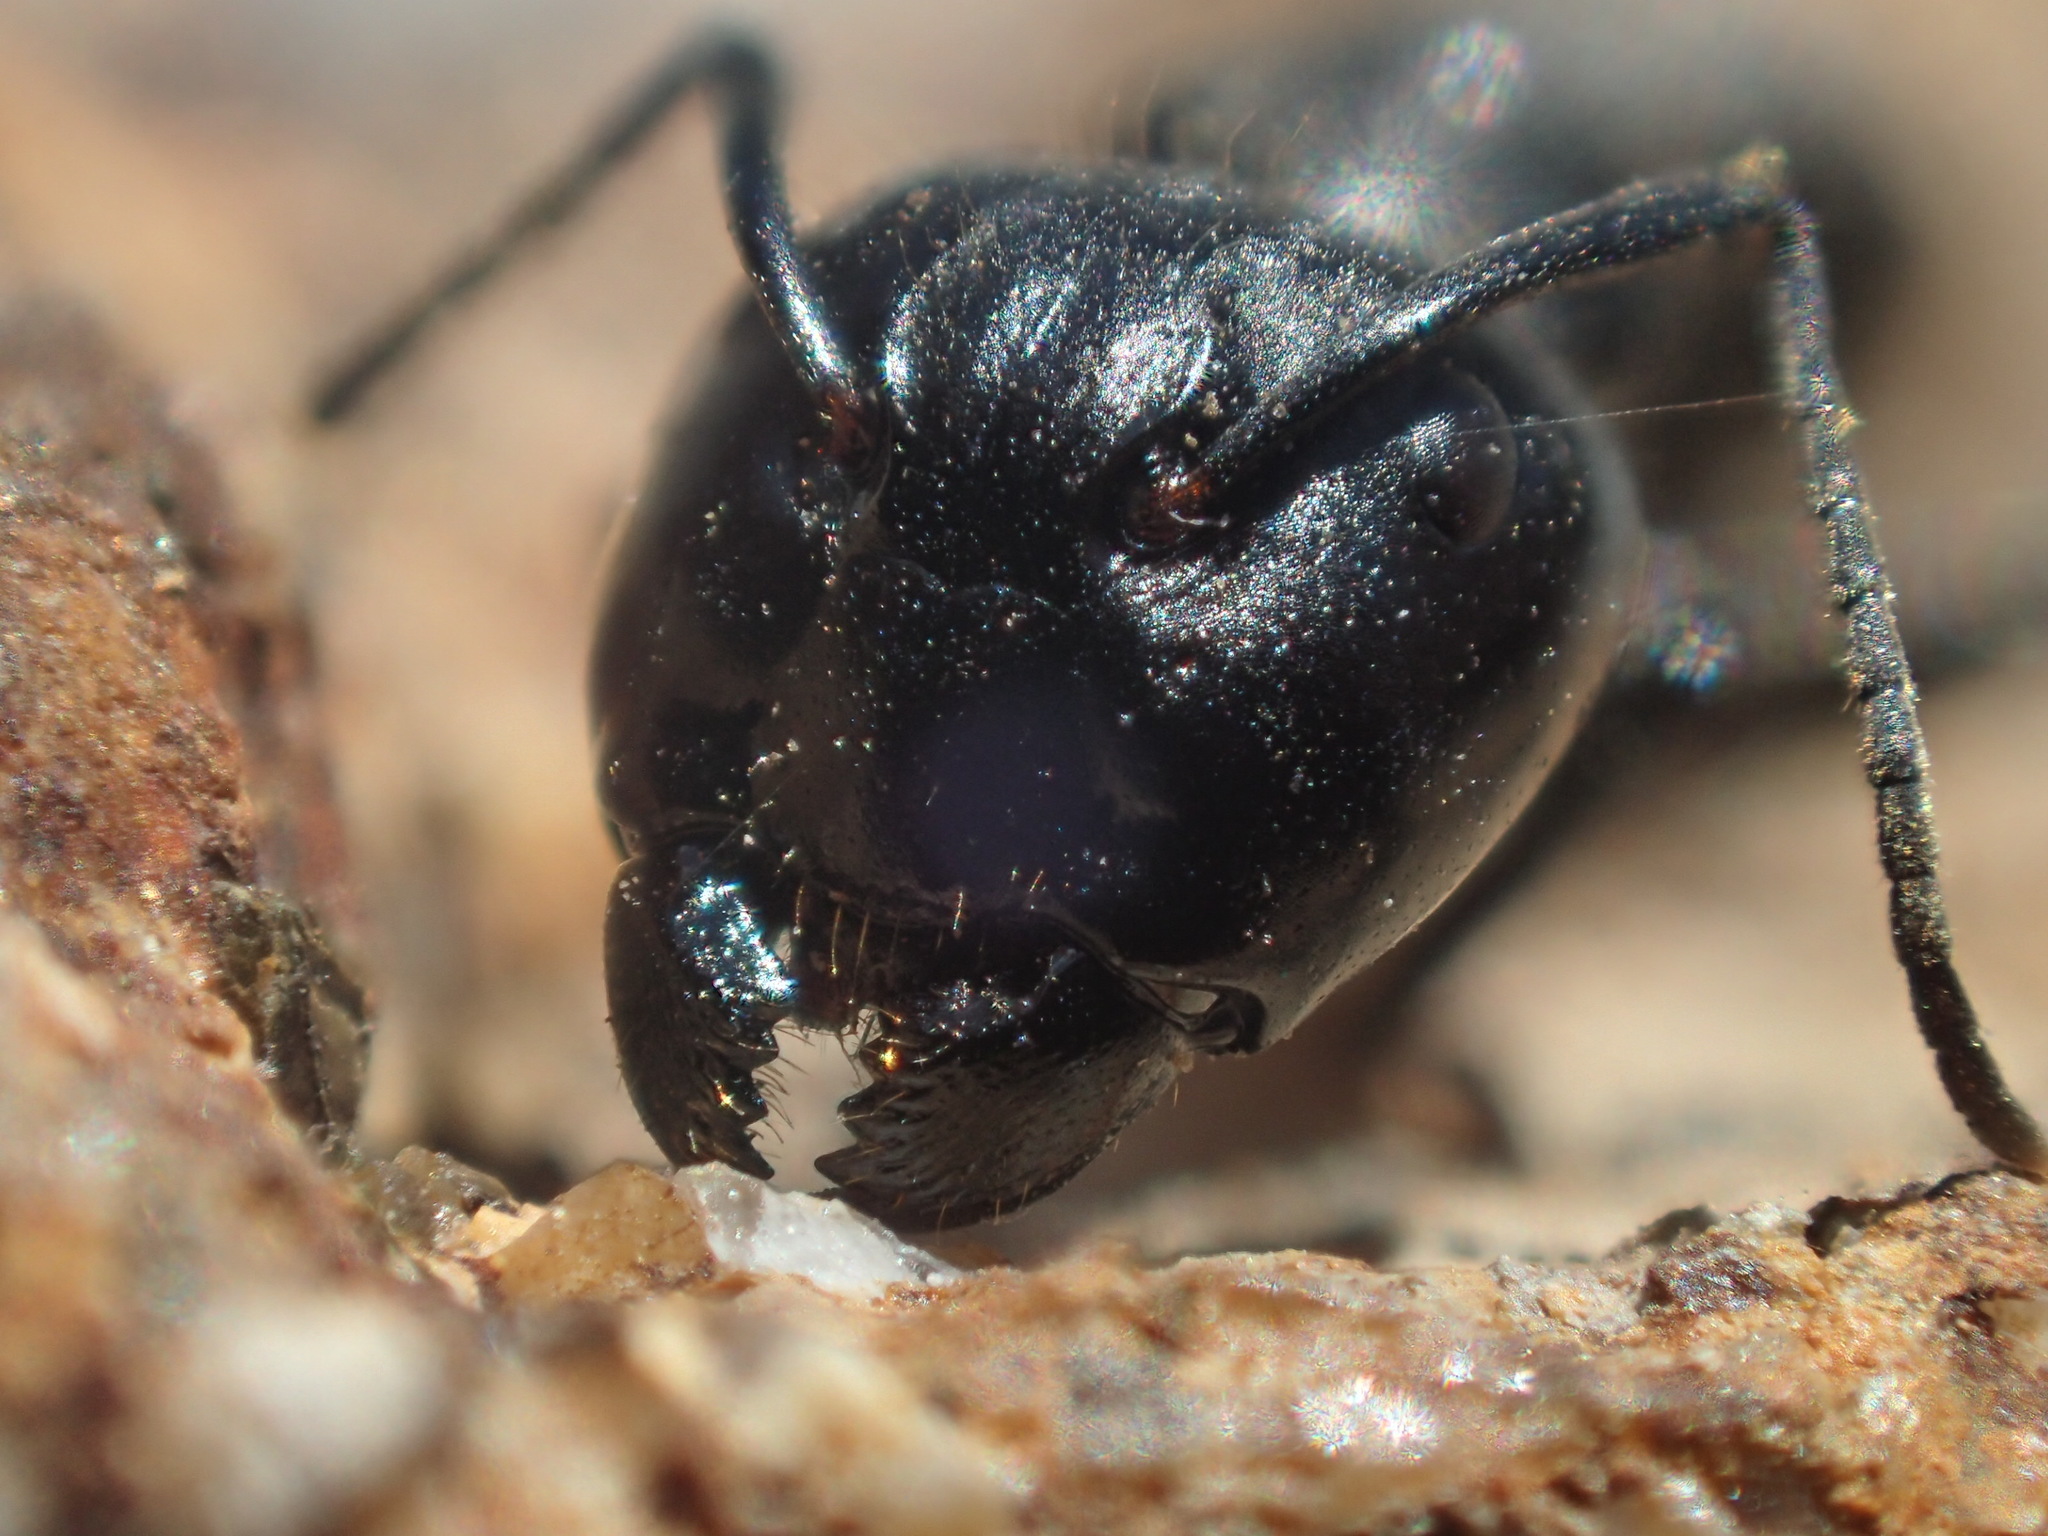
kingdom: Animalia
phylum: Arthropoda
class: Insecta
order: Hymenoptera
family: Formicidae
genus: Camponotus
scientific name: Camponotus vagus
